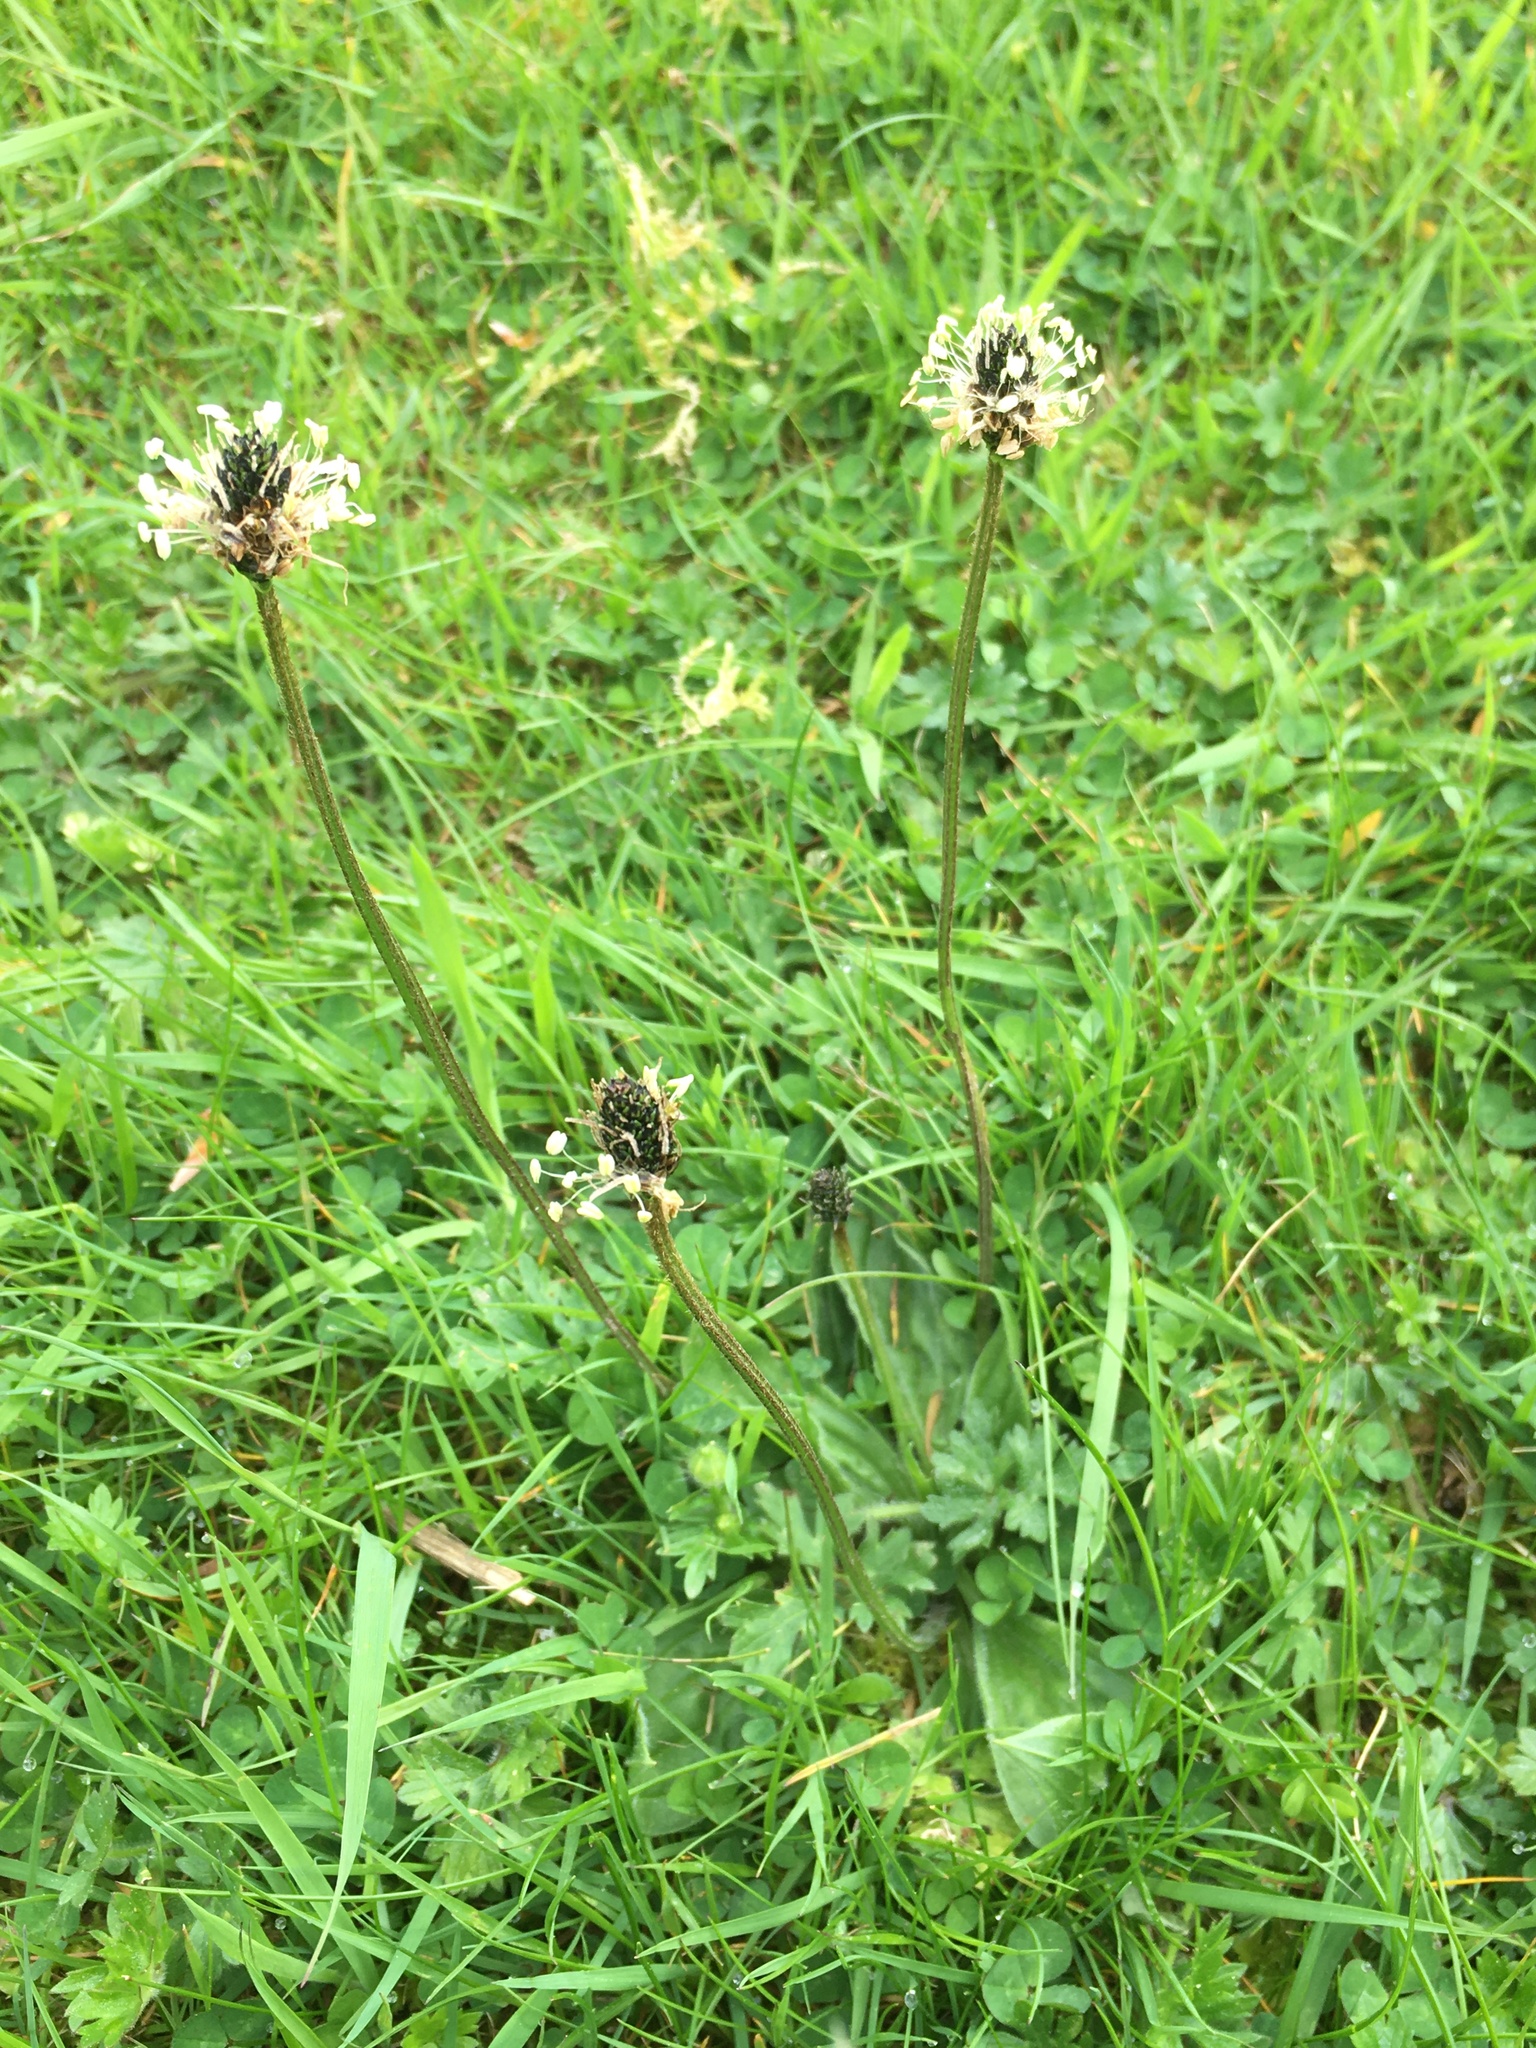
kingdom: Plantae
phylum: Tracheophyta
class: Magnoliopsida
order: Lamiales
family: Plantaginaceae
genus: Plantago
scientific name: Plantago lanceolata
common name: Ribwort plantain
